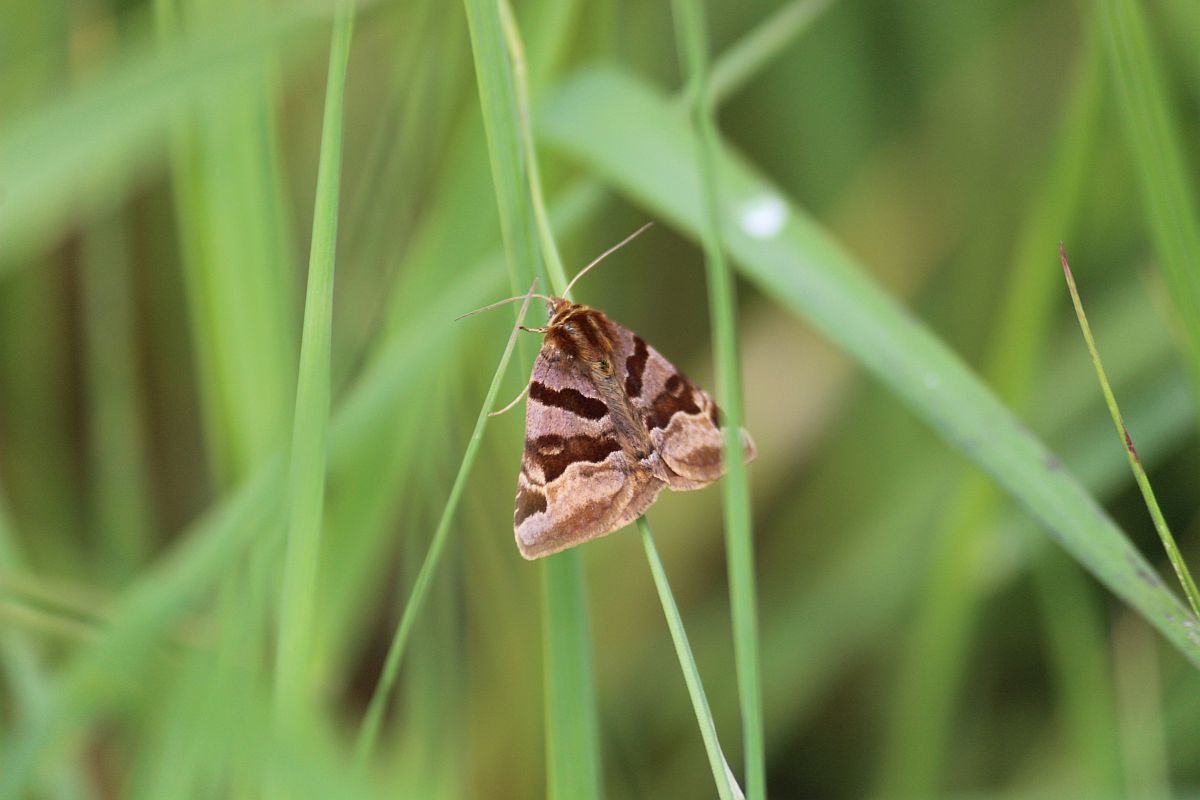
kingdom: Animalia
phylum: Arthropoda
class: Insecta
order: Lepidoptera
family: Erebidae
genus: Euclidia
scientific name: Euclidia glyphica
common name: Burnet companion
